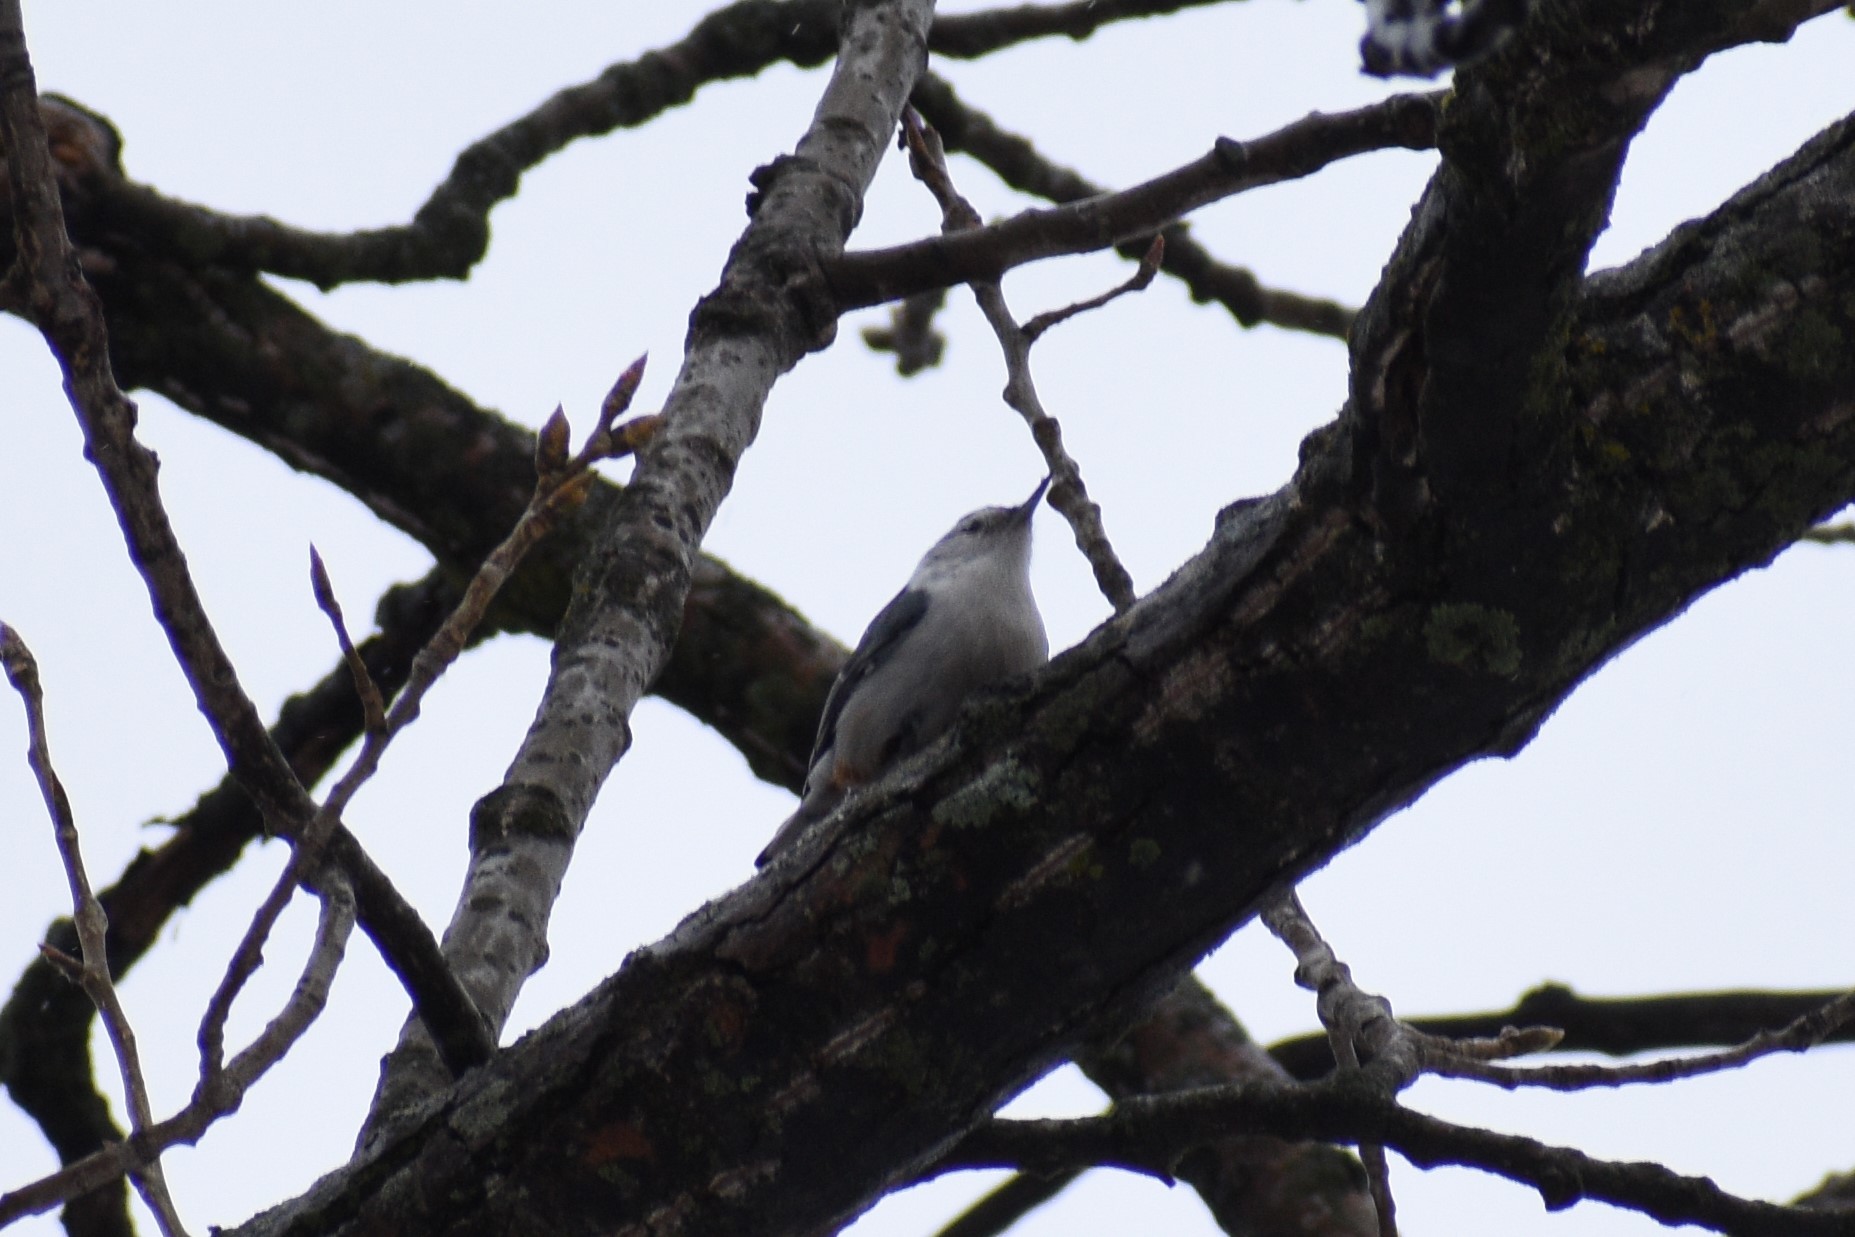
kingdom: Animalia
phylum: Chordata
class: Aves
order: Passeriformes
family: Sittidae
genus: Sitta
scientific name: Sitta carolinensis
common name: White-breasted nuthatch
